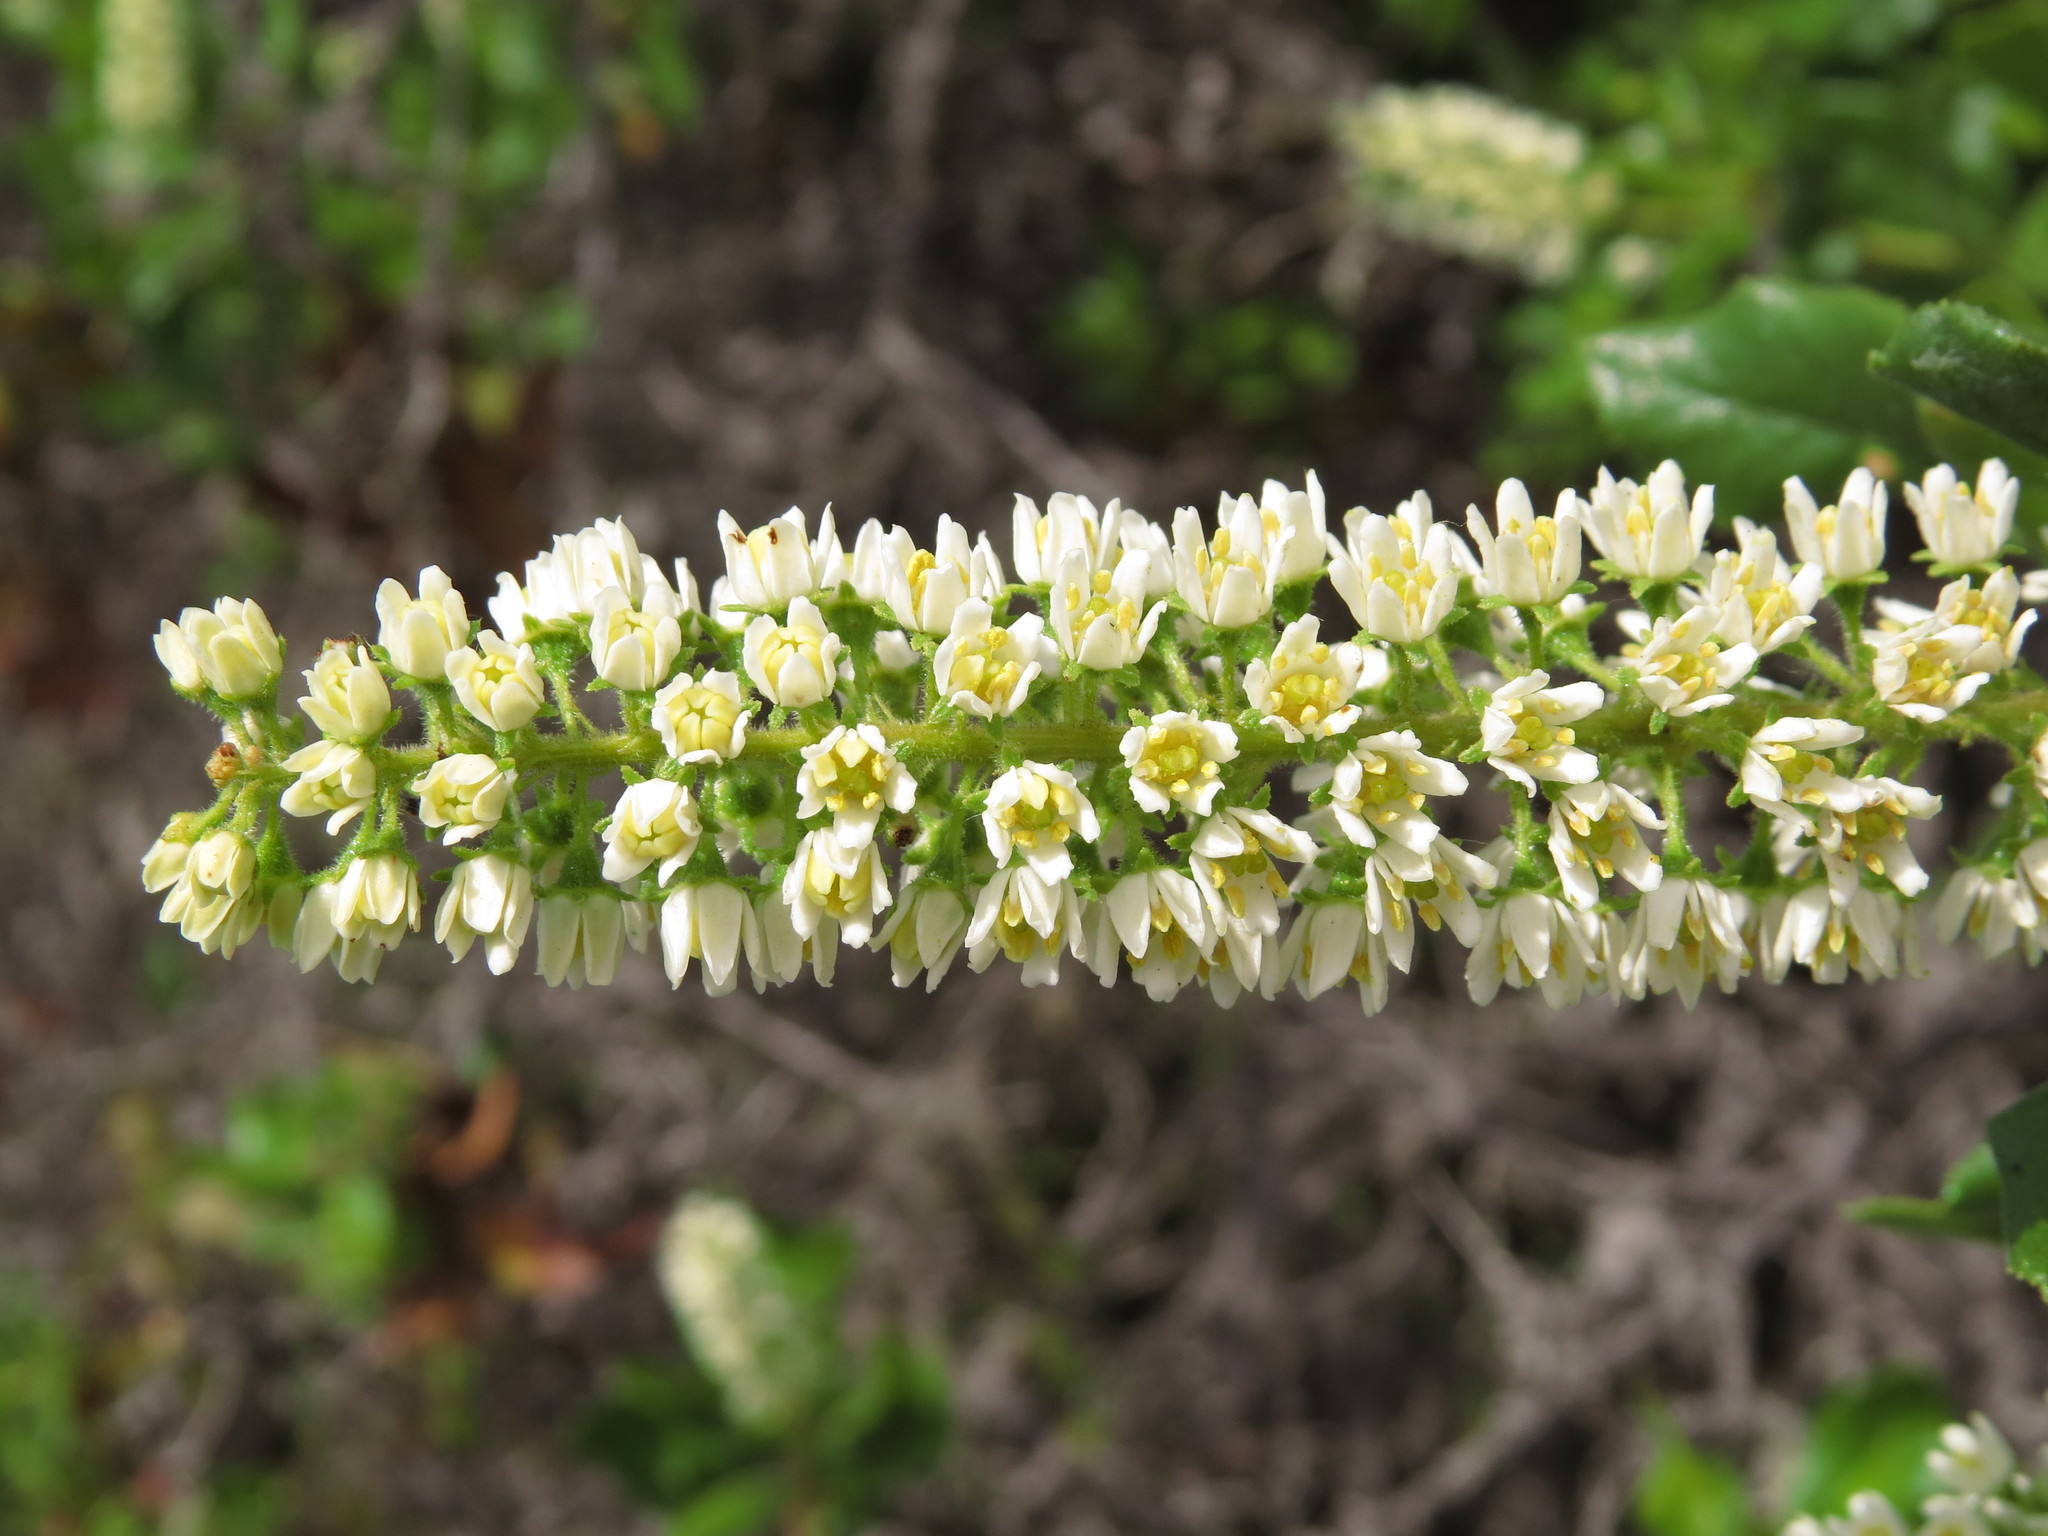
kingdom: Plantae
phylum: Tracheophyta
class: Magnoliopsida
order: Escalloniales
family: Escalloniaceae
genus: Escallonia
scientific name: Escallonia pulverulenta
